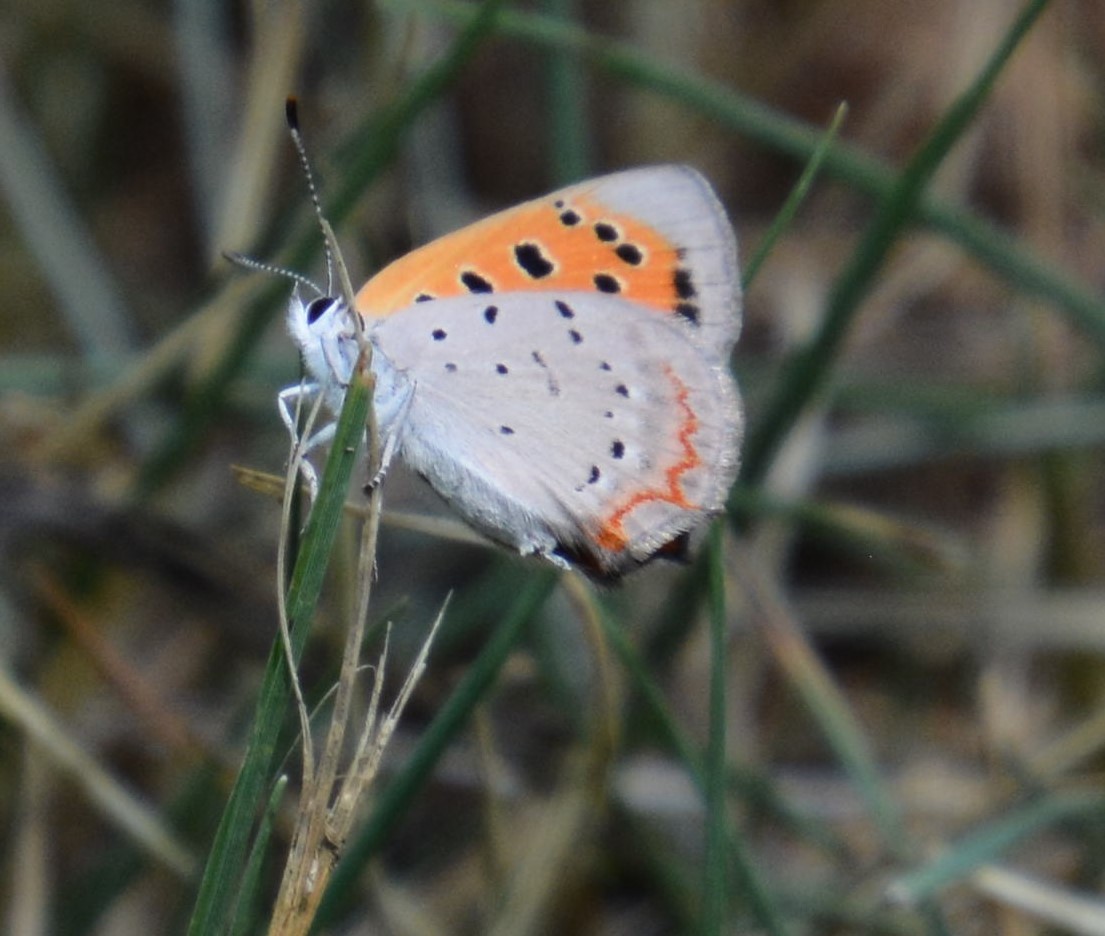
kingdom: Animalia
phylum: Arthropoda
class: Insecta
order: Lepidoptera
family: Lycaenidae
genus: Lycaena
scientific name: Lycaena hypophlaeas
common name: American copper
